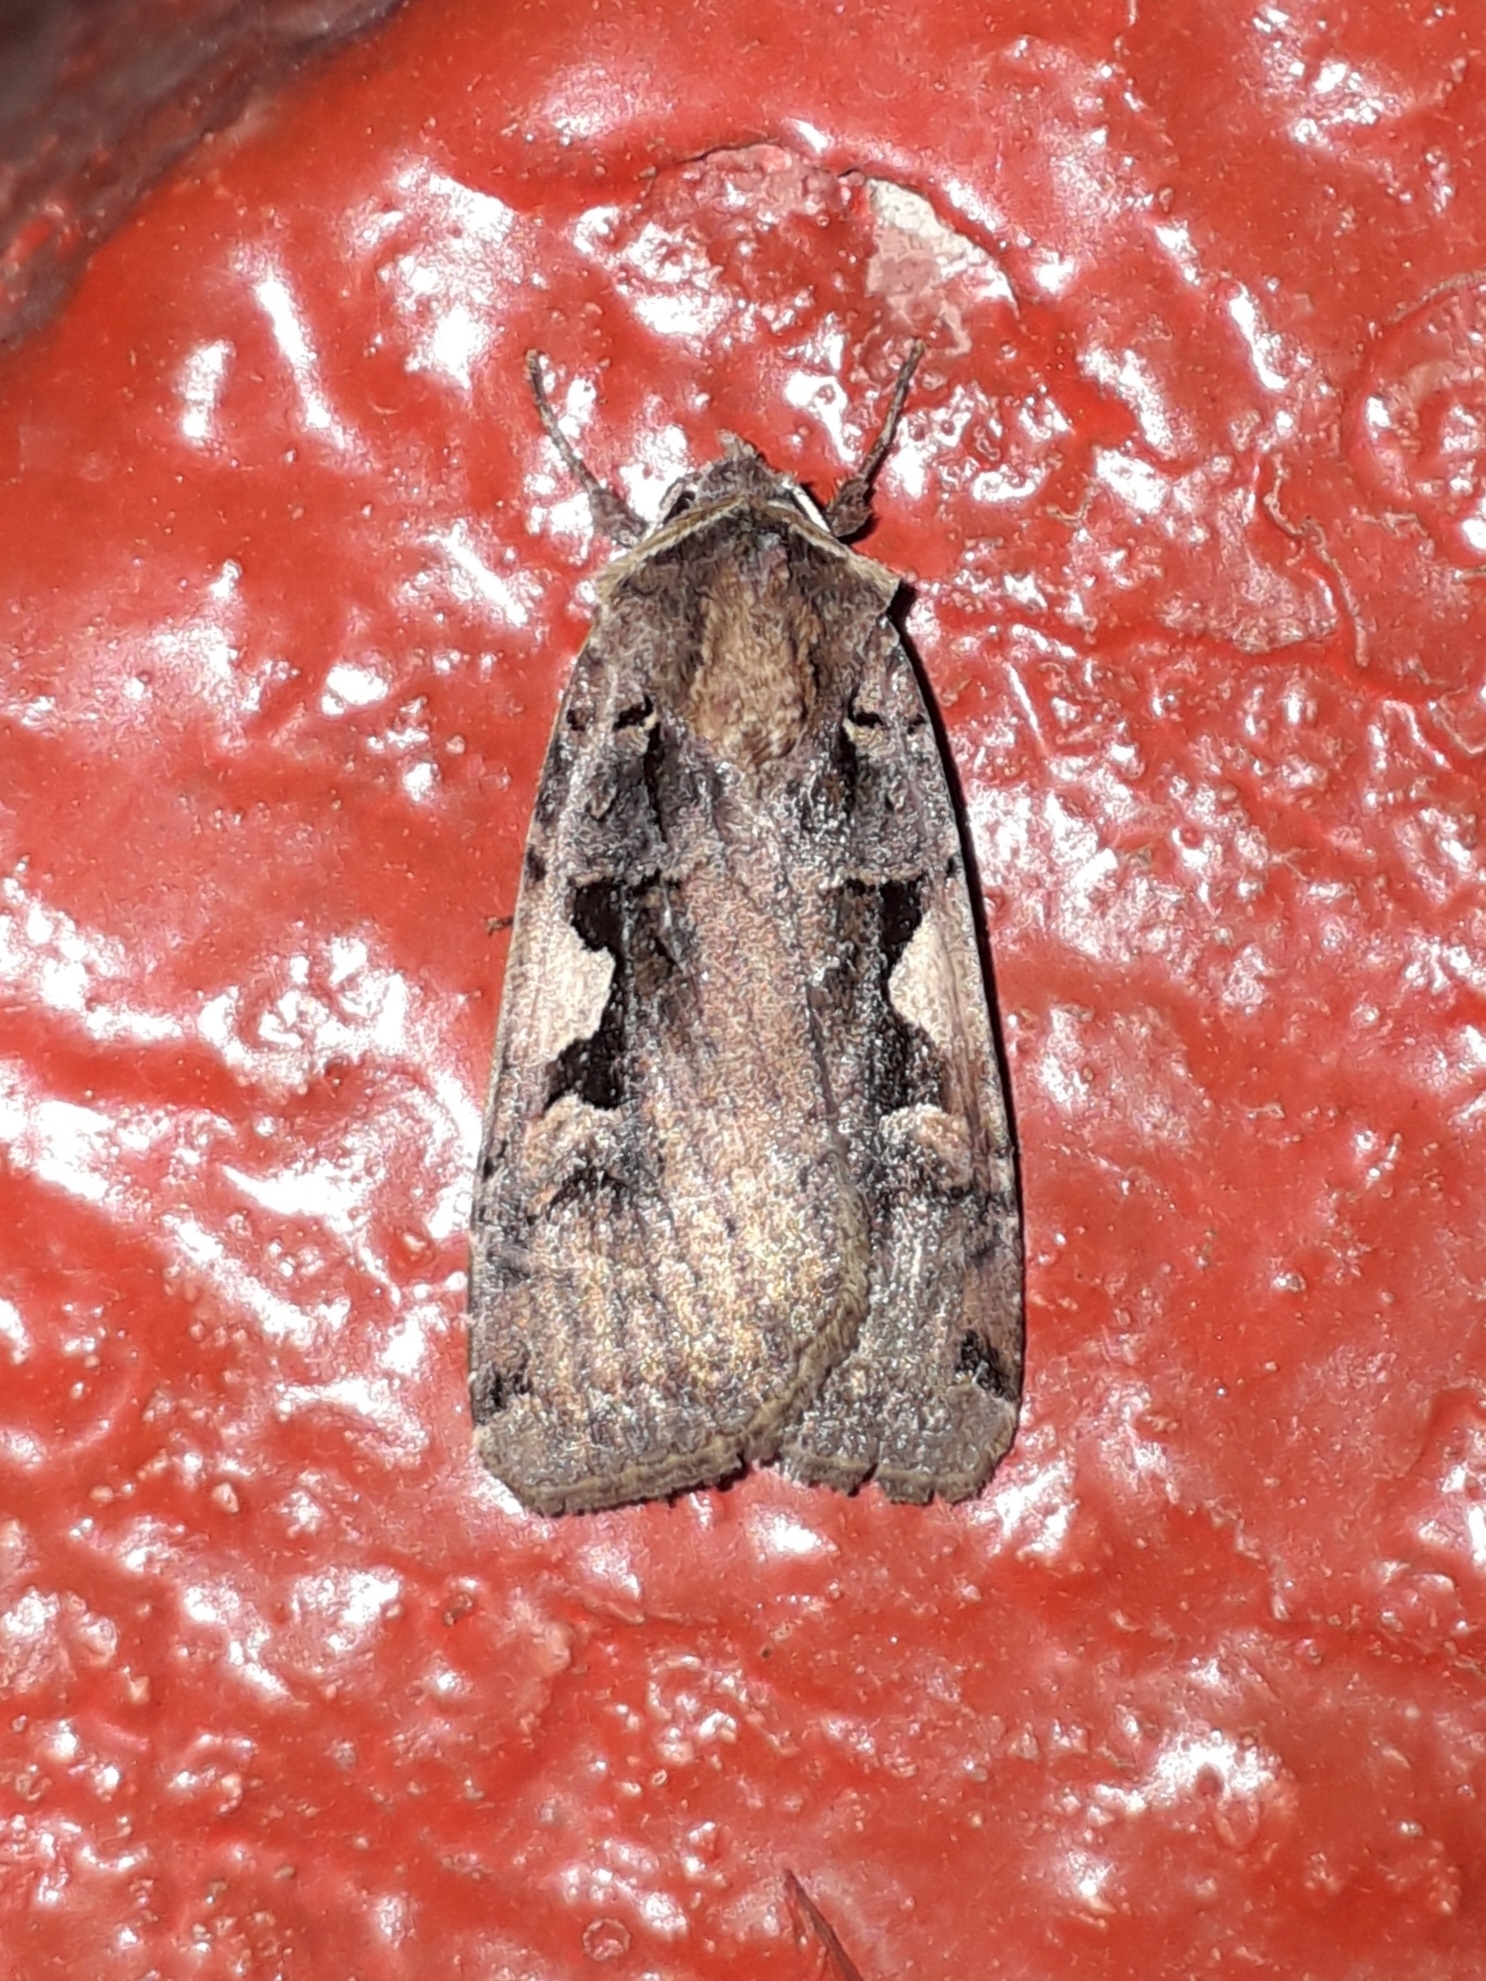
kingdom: Animalia
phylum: Arthropoda
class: Insecta
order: Lepidoptera
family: Noctuidae
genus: Xestia
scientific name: Xestia c-nigrum
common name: Setaceous hebrew character
